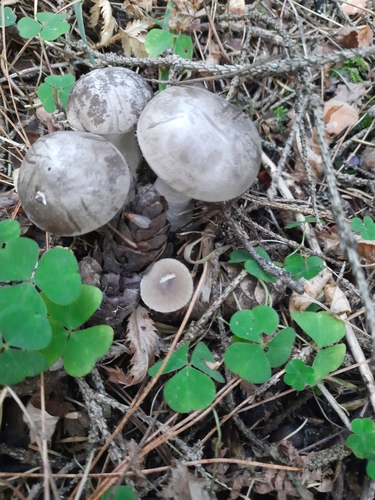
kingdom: Fungi
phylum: Basidiomycota
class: Agaricomycetes
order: Agaricales
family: Tricholomataceae
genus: Clitocybe
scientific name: Clitocybe nebularis
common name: Clouded agaric
